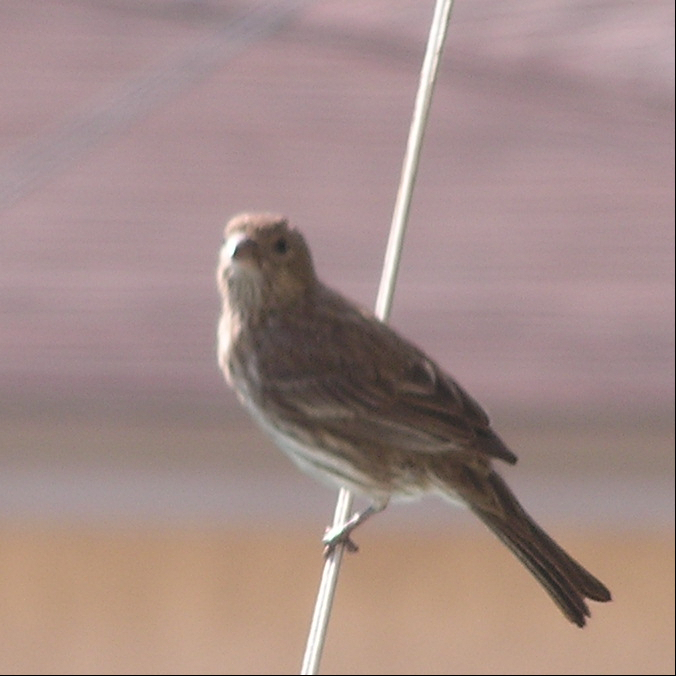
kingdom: Animalia
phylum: Chordata
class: Aves
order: Passeriformes
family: Fringillidae
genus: Haemorhous
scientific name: Haemorhous mexicanus
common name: House finch
